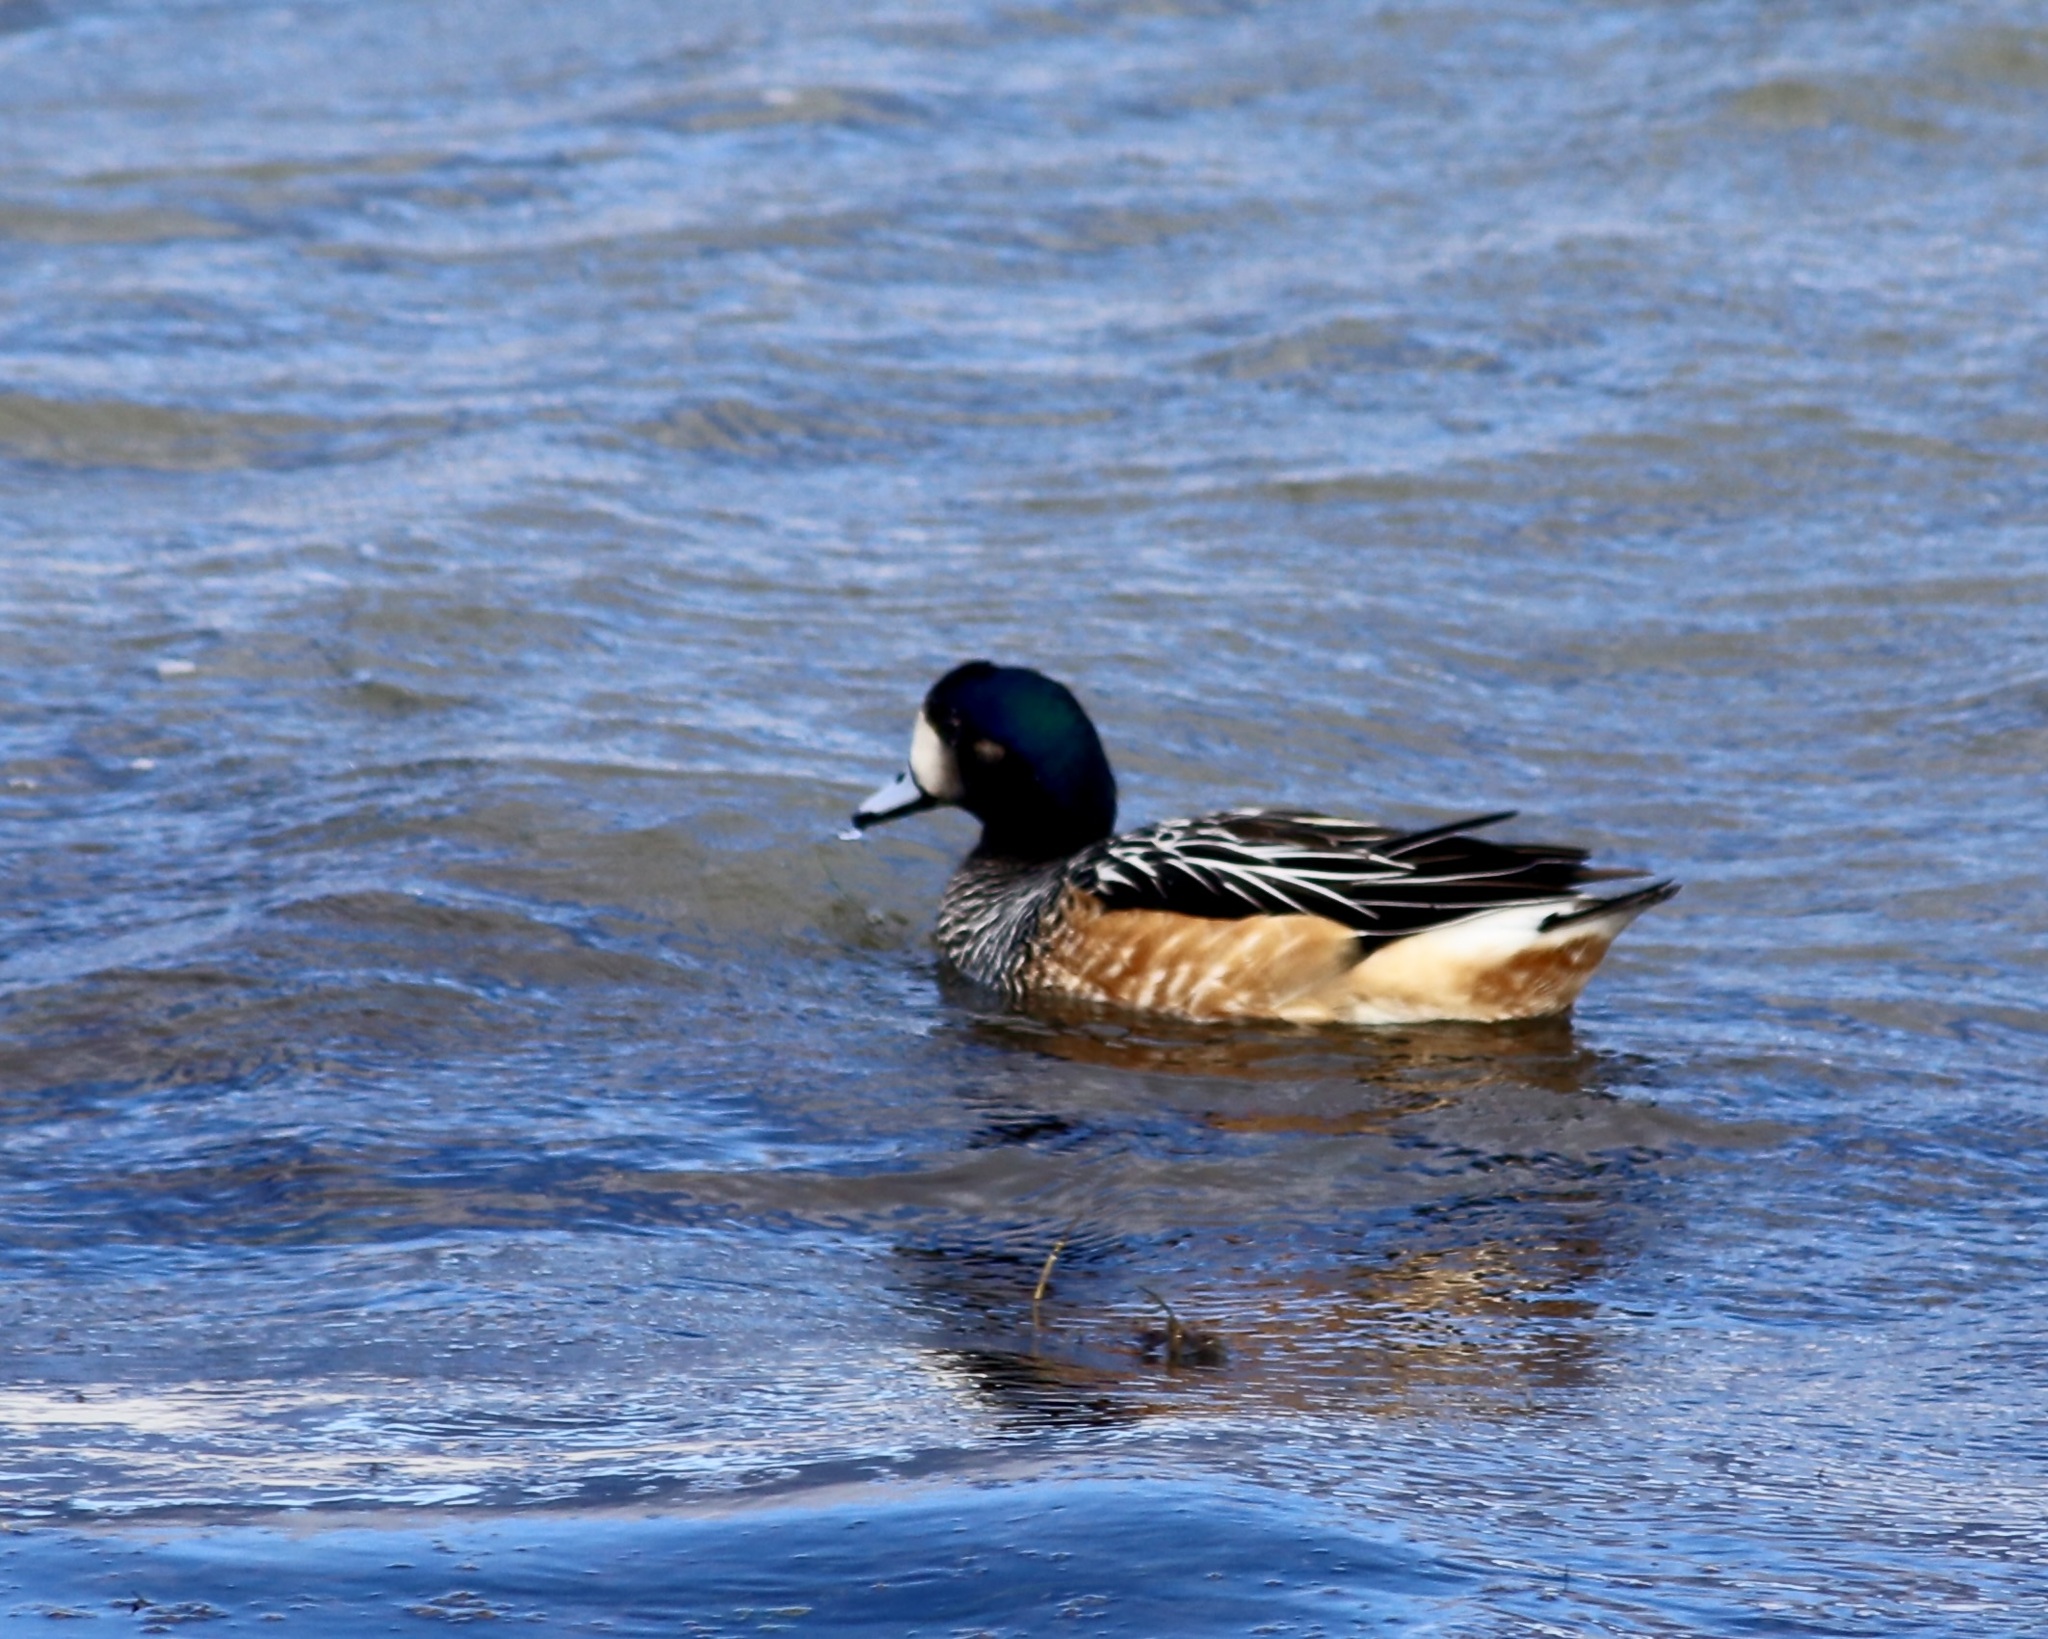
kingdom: Animalia
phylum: Chordata
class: Aves
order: Anseriformes
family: Anatidae
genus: Mareca
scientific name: Mareca sibilatrix
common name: Chiloe wigeon
